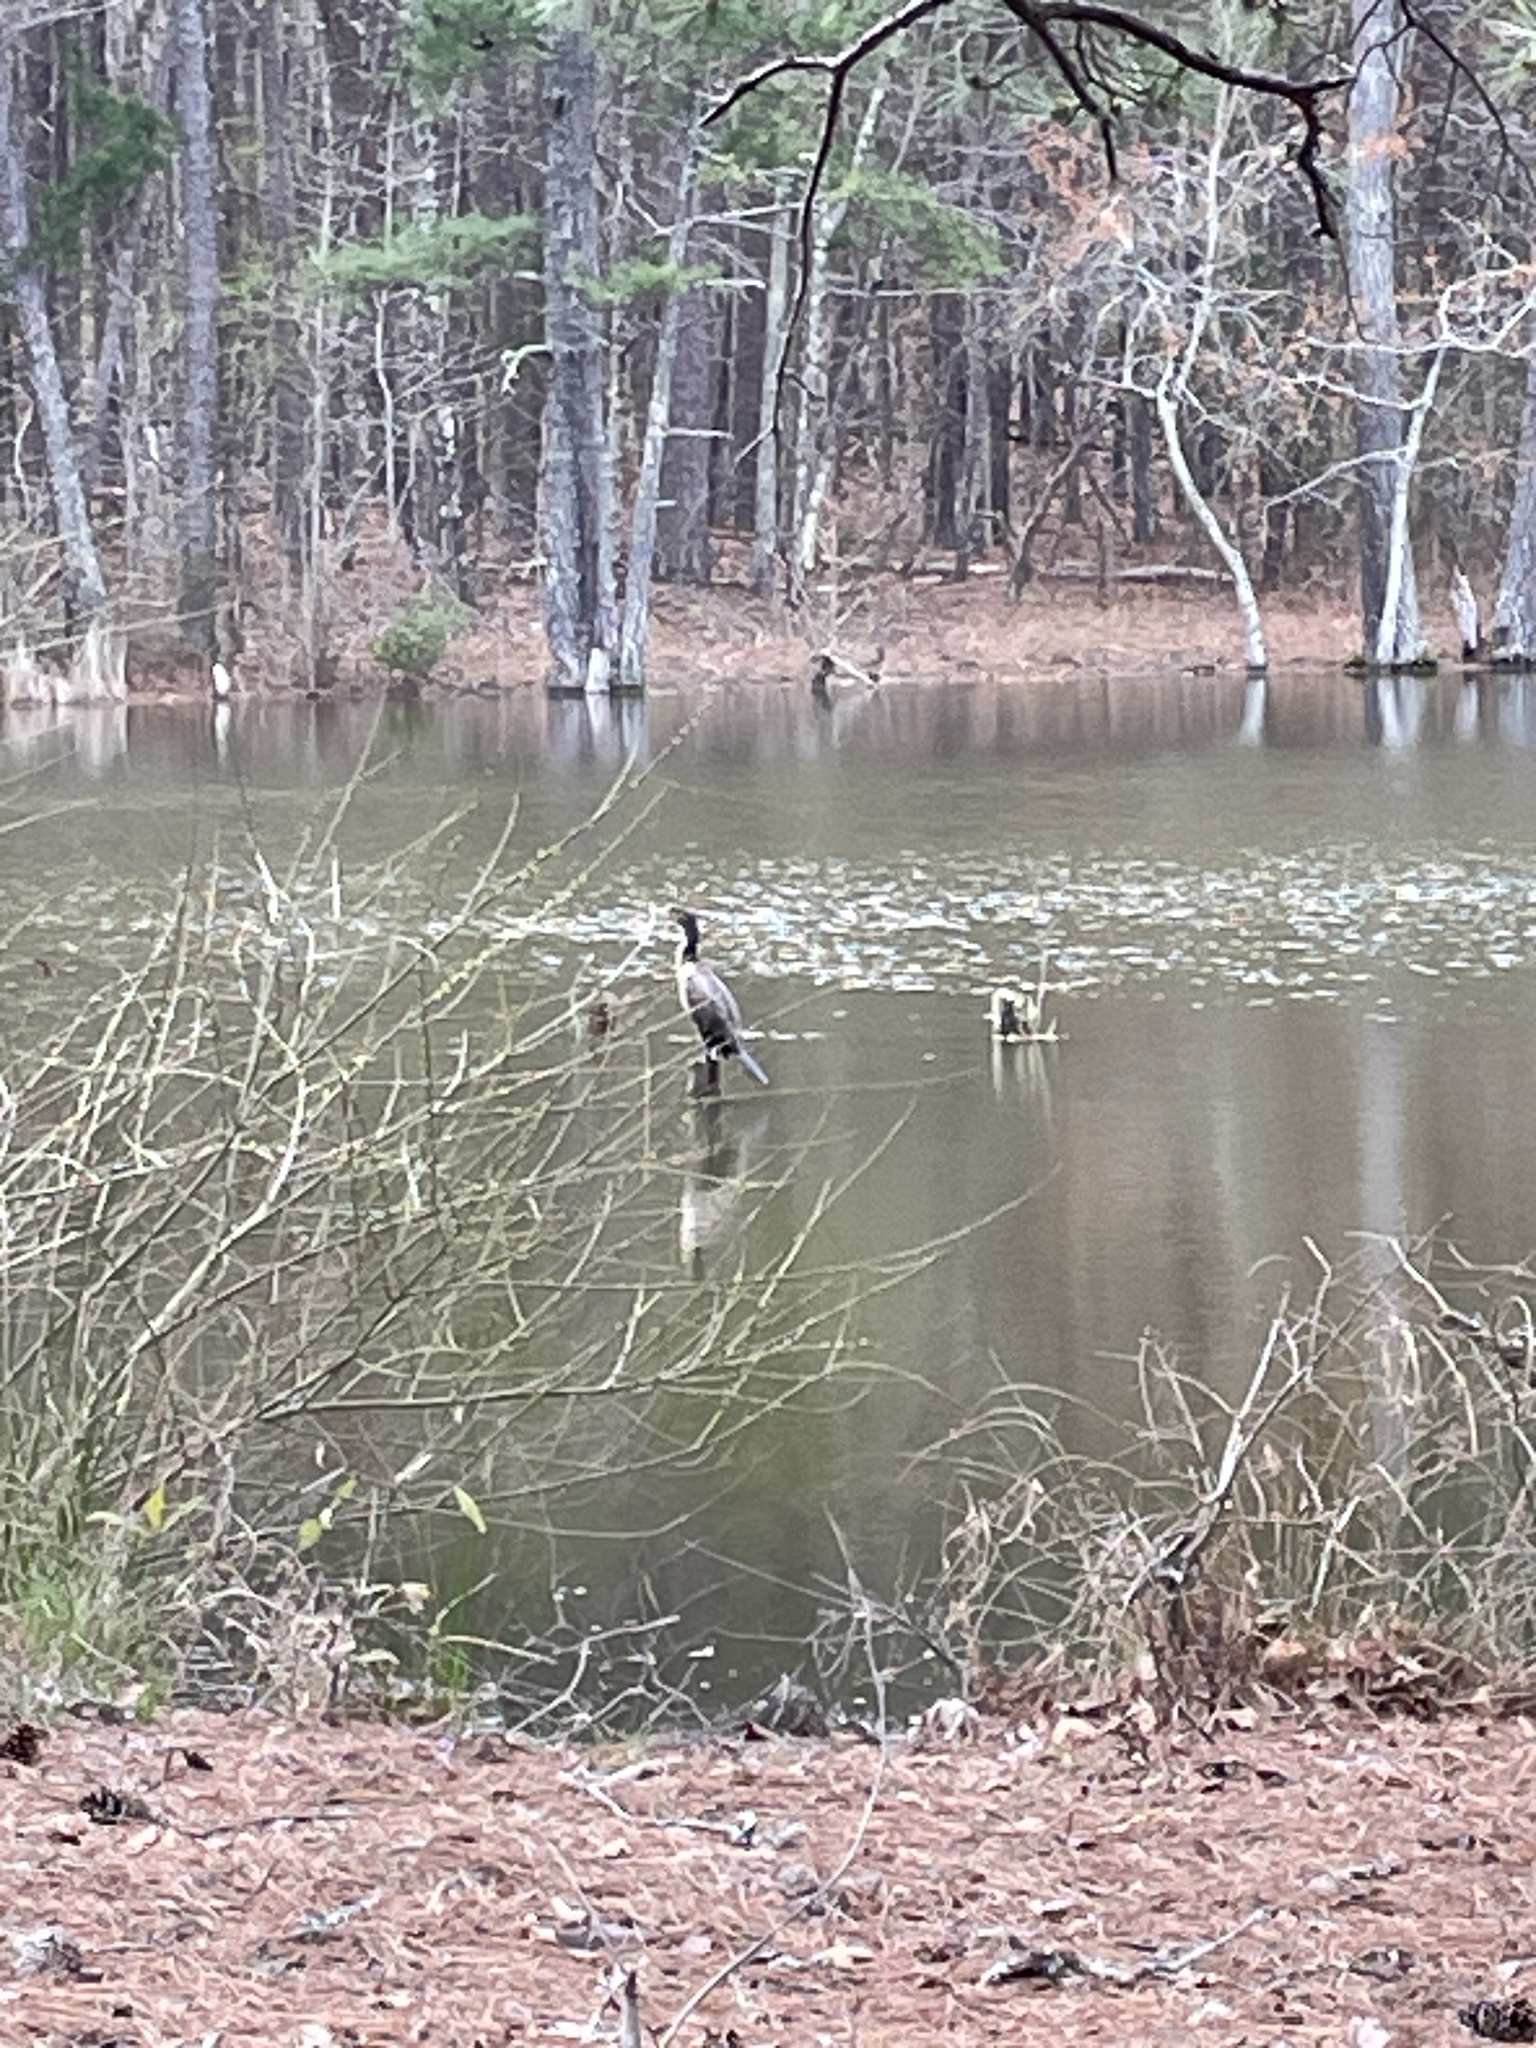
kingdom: Animalia
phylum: Chordata
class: Aves
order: Suliformes
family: Phalacrocoracidae
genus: Phalacrocorax
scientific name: Phalacrocorax auritus
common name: Double-crested cormorant
